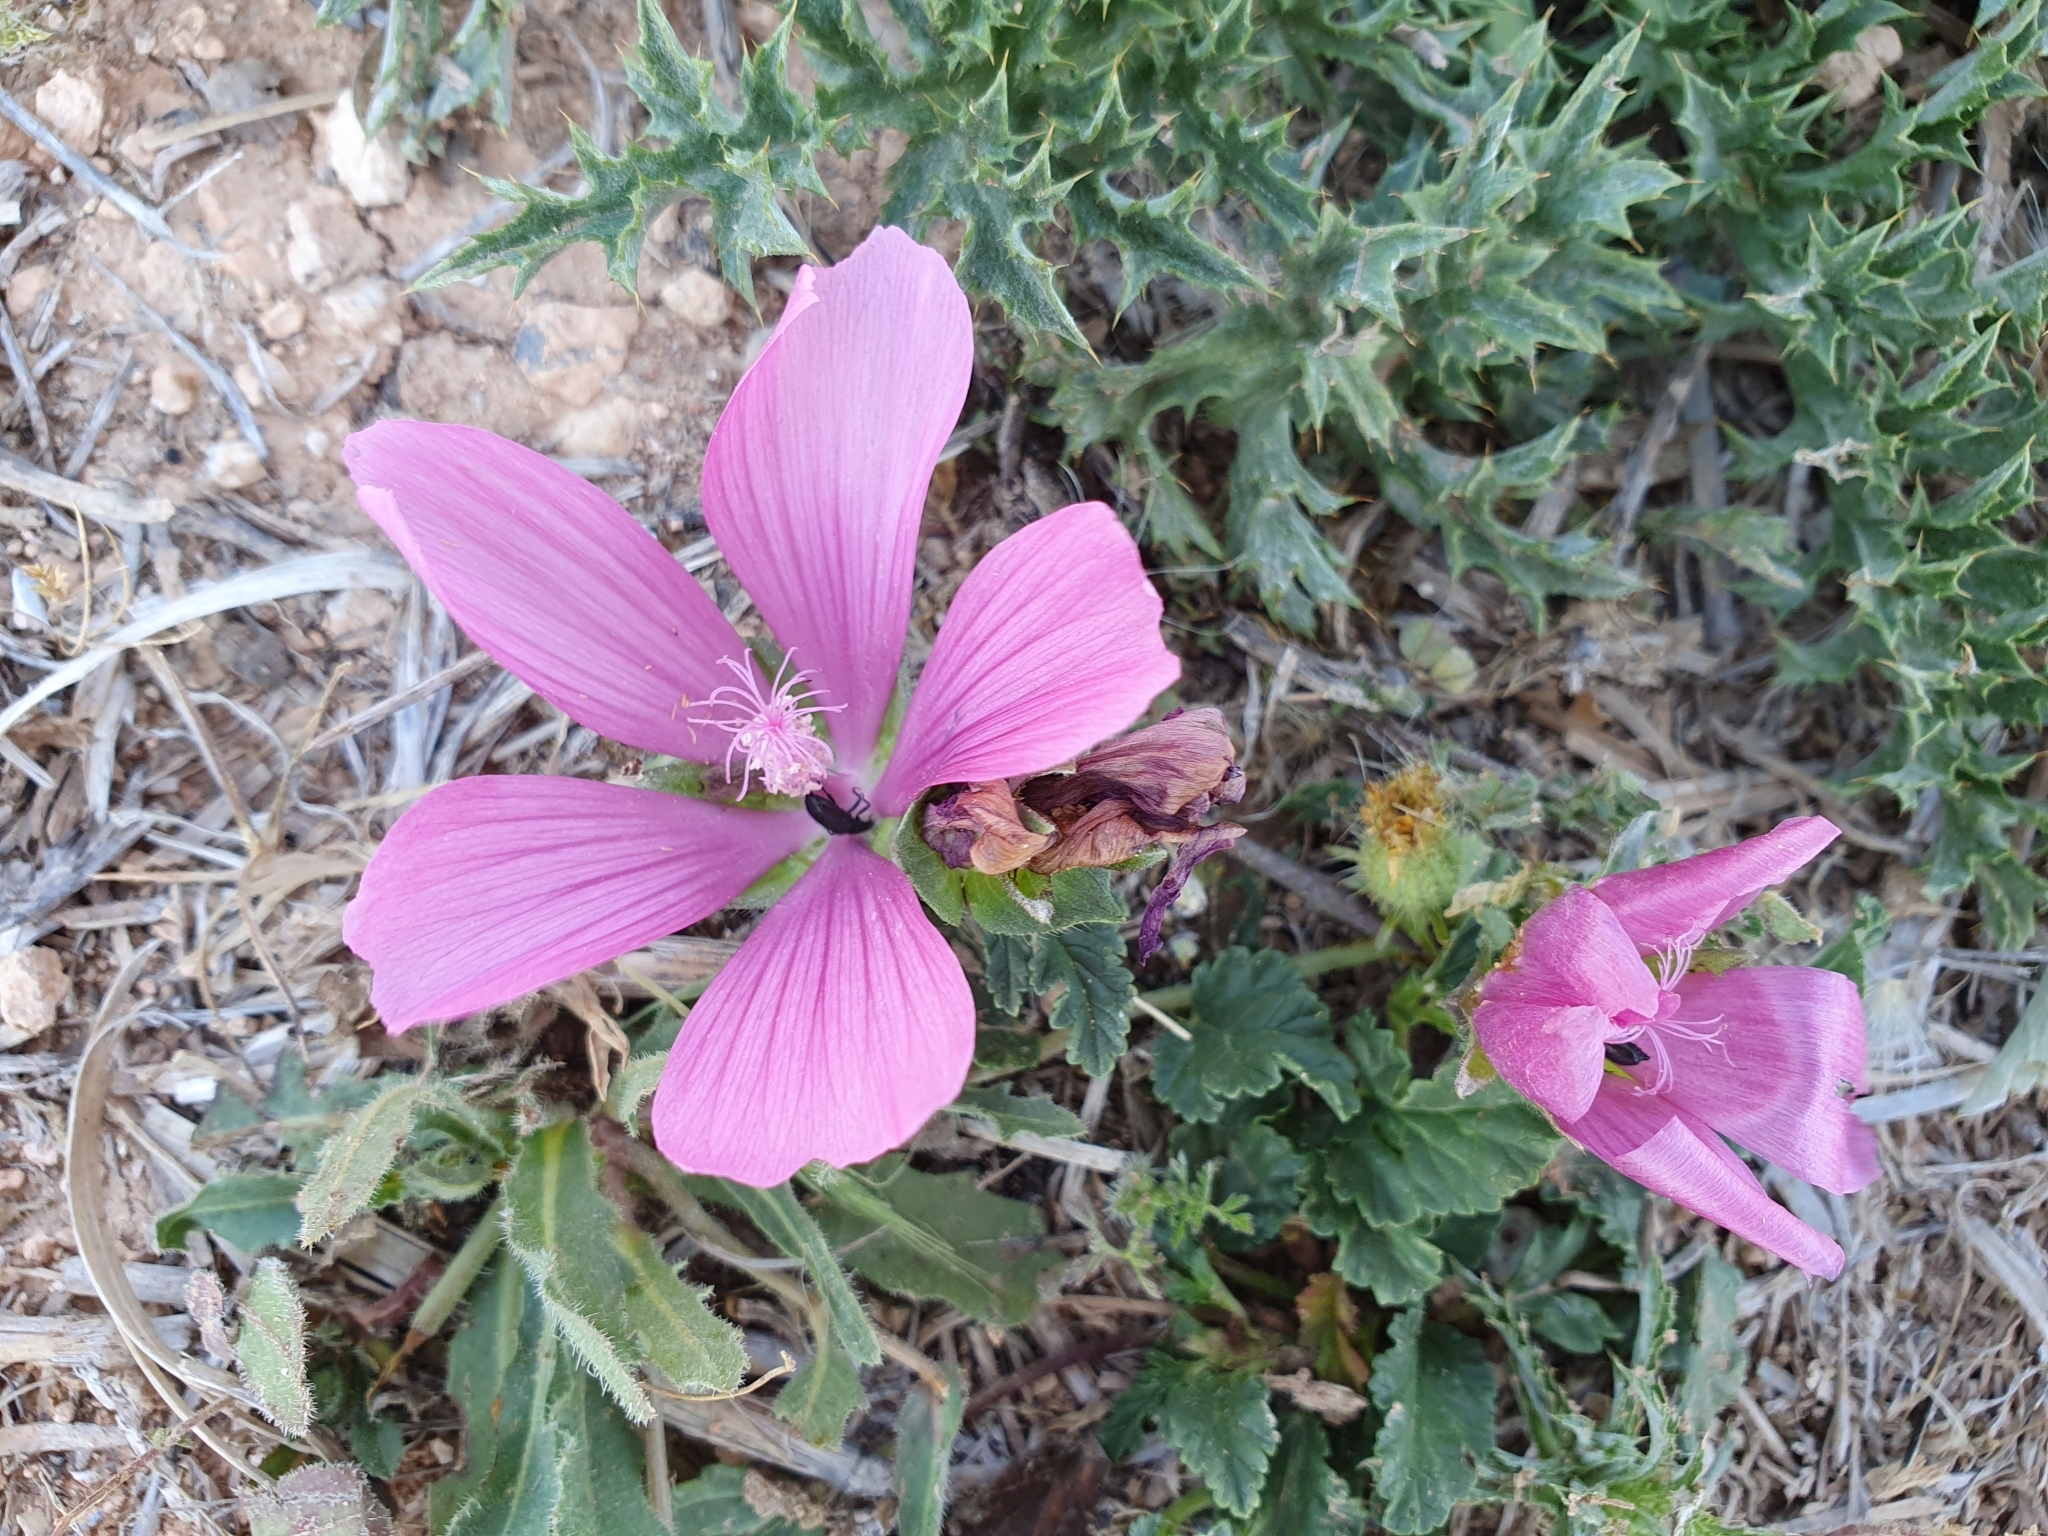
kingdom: Plantae
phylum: Tracheophyta
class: Magnoliopsida
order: Malvales
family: Malvaceae
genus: Malope
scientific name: Malope malacoides
